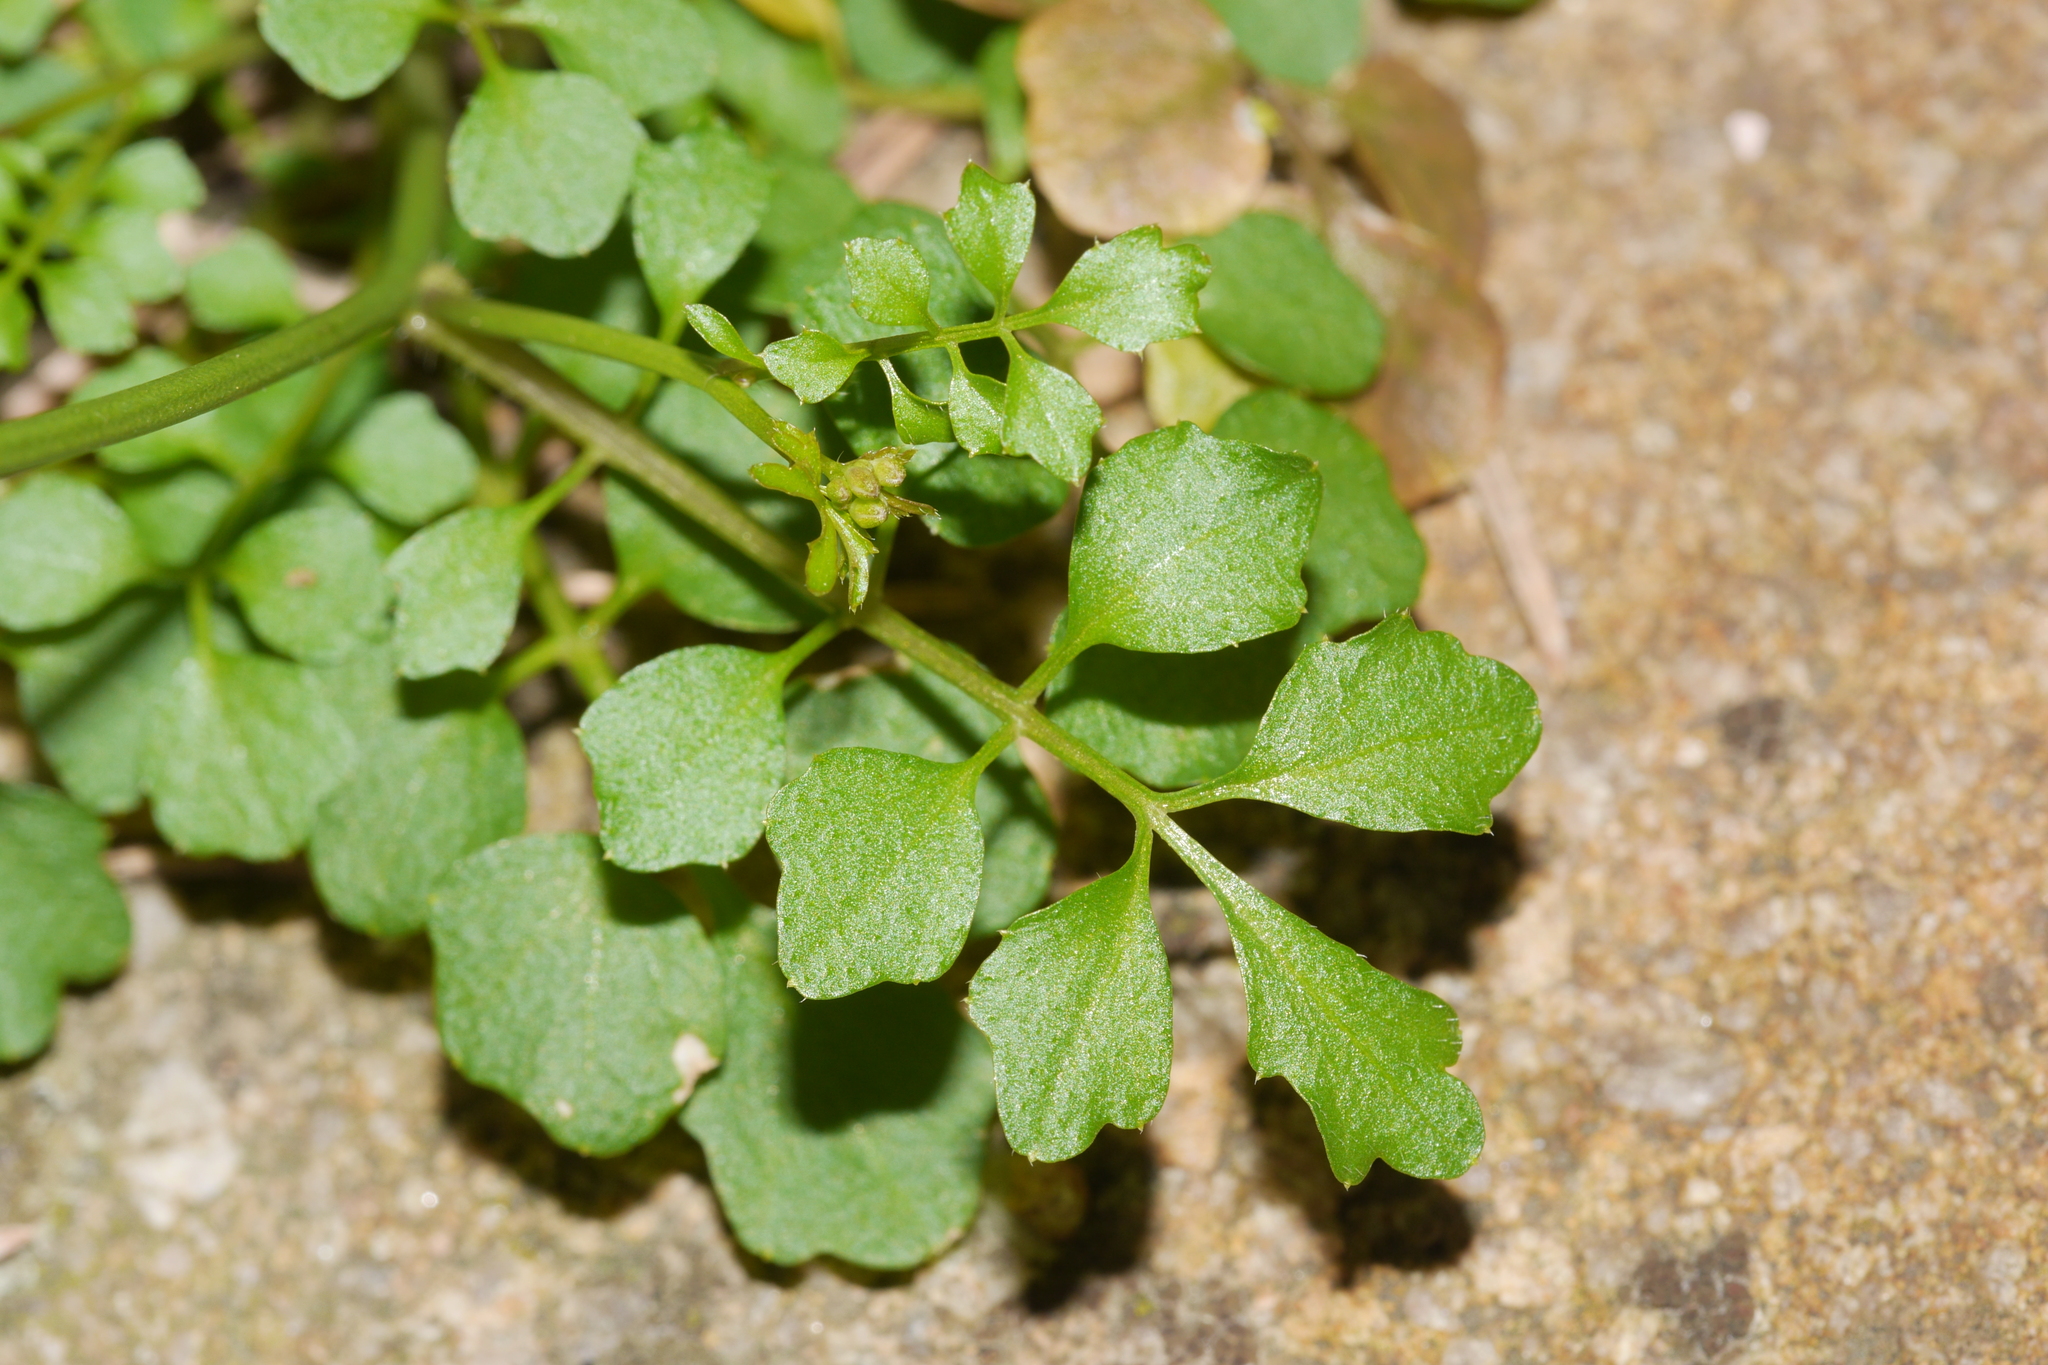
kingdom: Plantae
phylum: Tracheophyta
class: Magnoliopsida
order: Brassicales
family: Brassicaceae
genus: Cardamine
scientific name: Cardamine hirsuta
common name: Hairy bittercress
